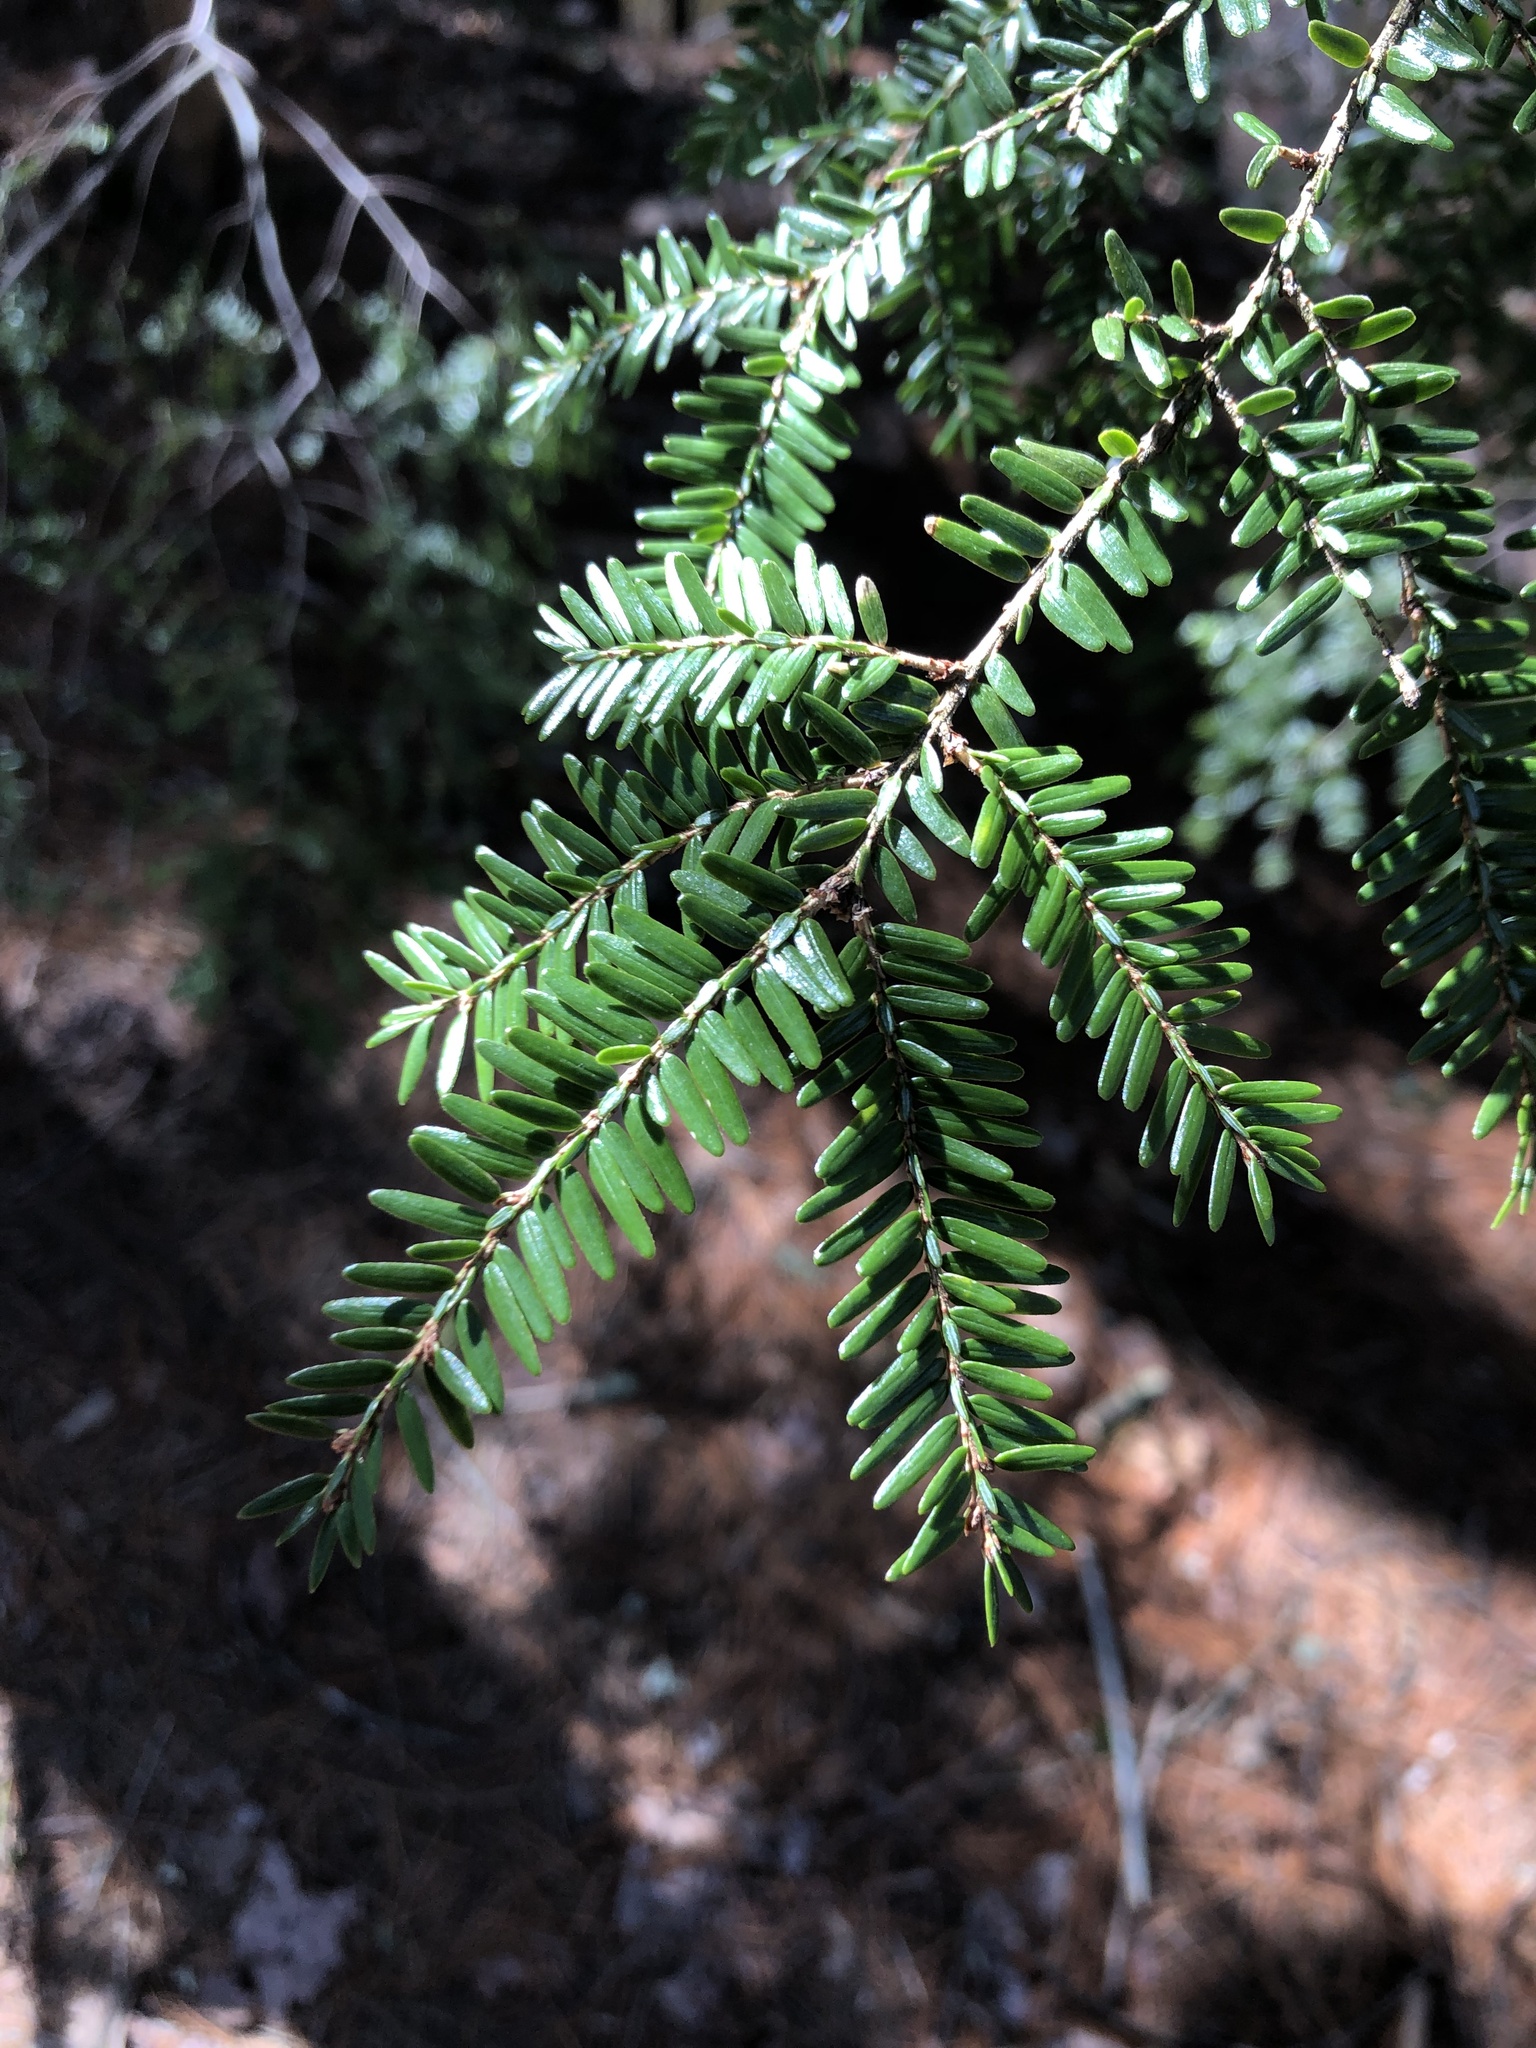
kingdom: Plantae
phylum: Tracheophyta
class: Pinopsida
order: Pinales
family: Pinaceae
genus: Tsuga
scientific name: Tsuga canadensis
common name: Eastern hemlock
